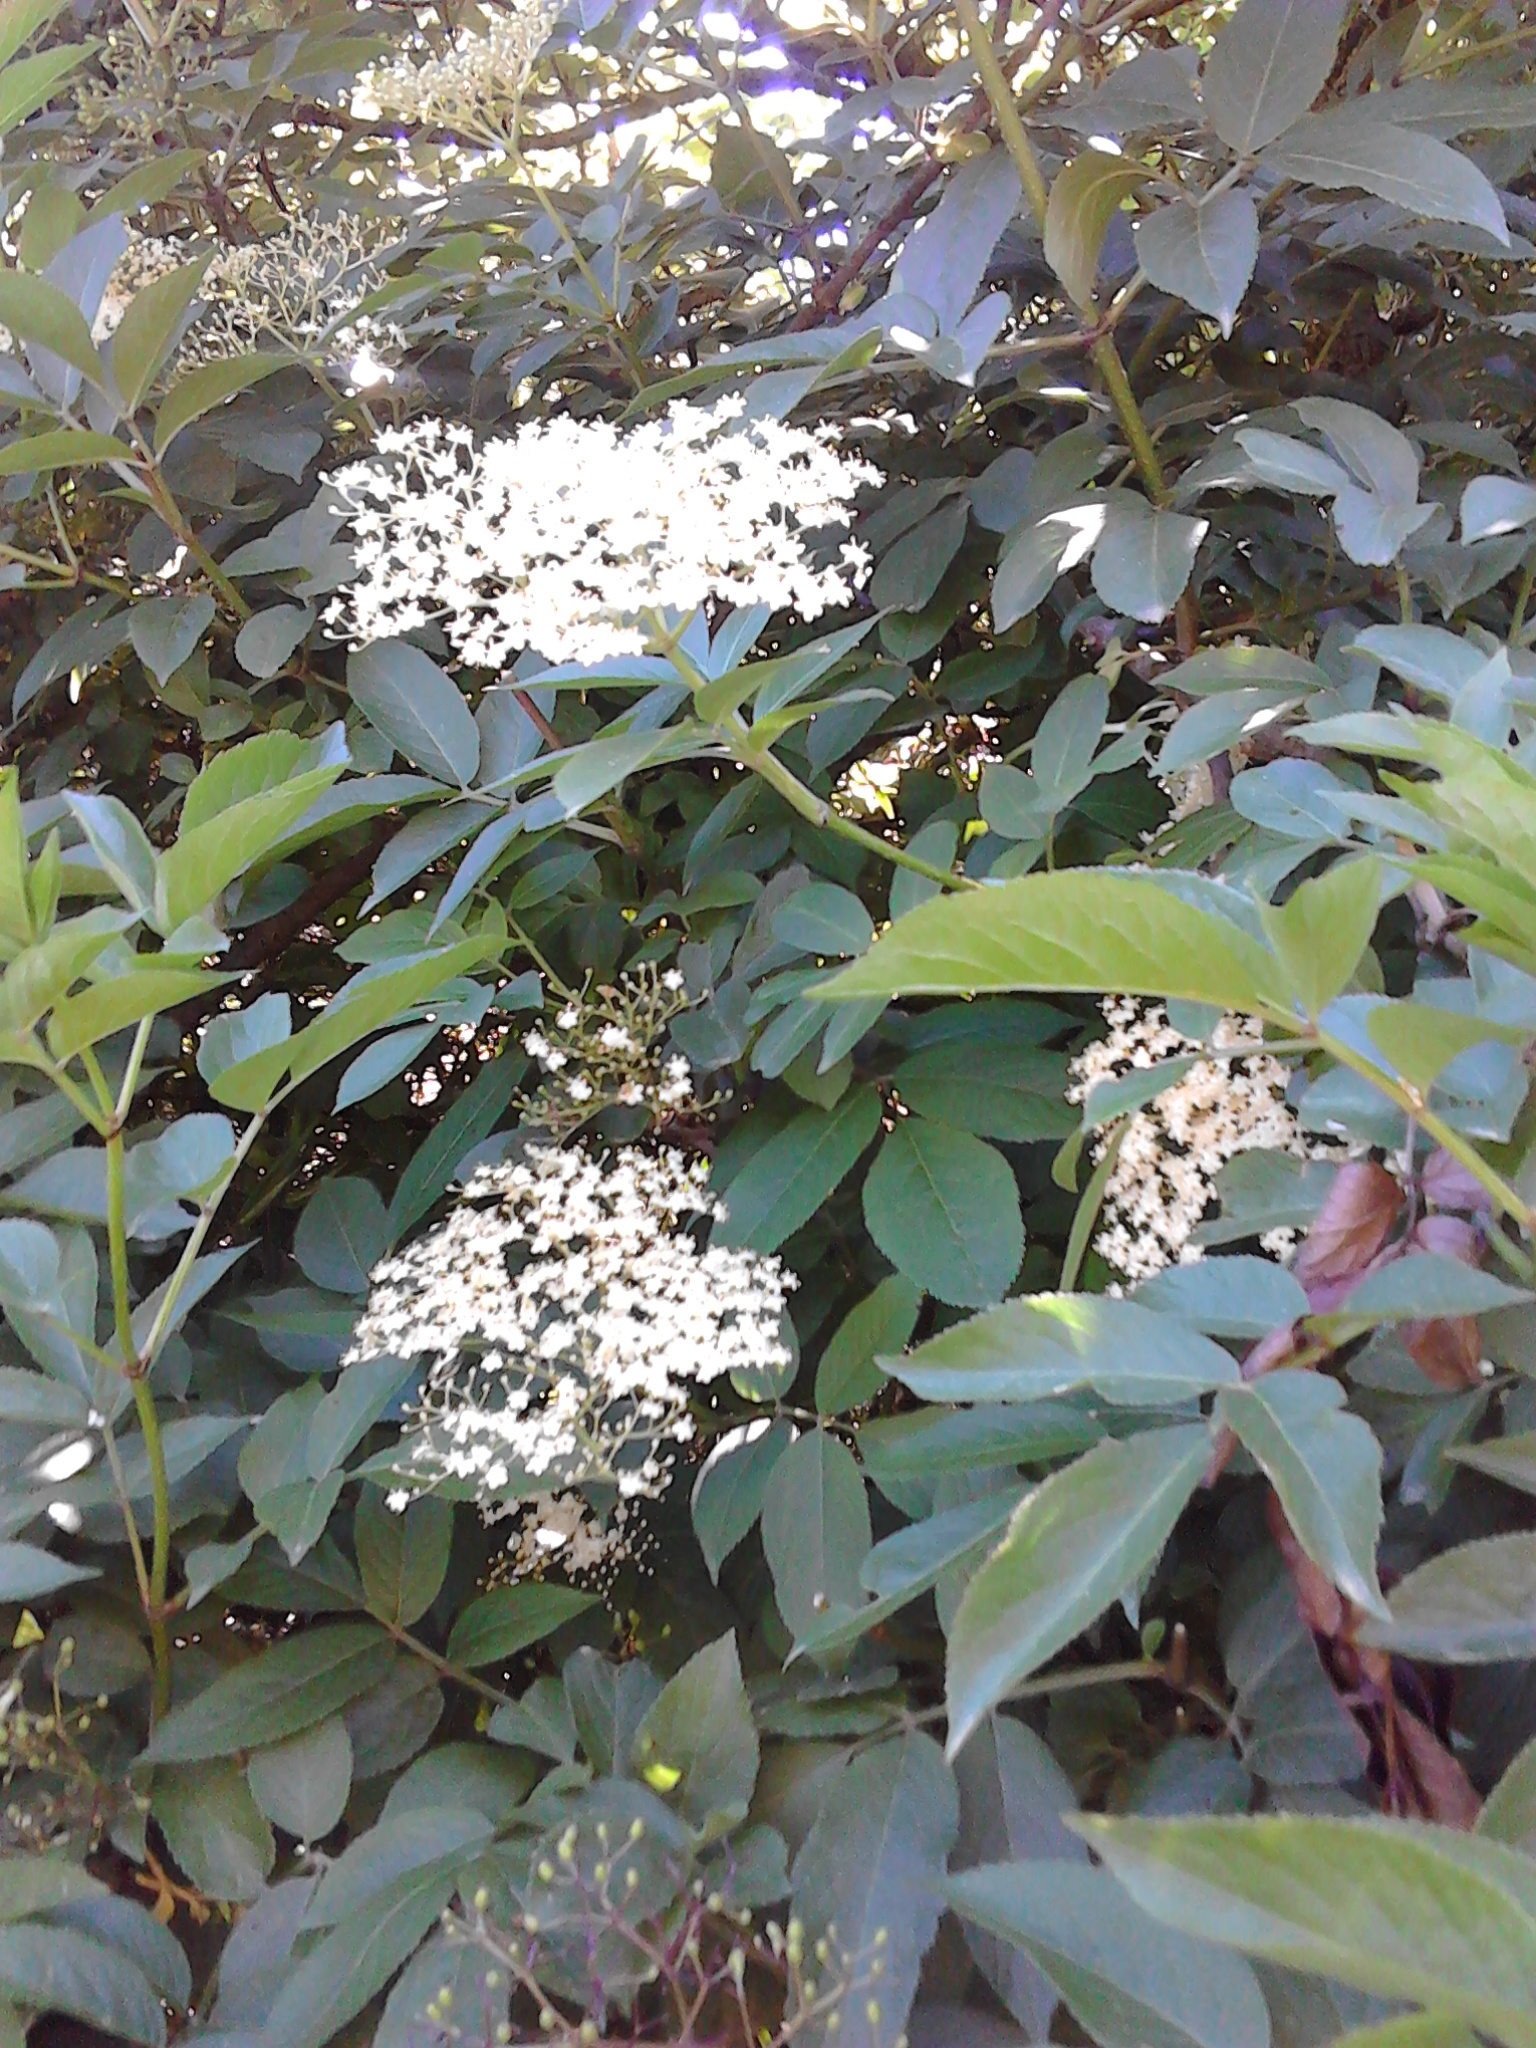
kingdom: Plantae
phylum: Tracheophyta
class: Magnoliopsida
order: Dipsacales
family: Viburnaceae
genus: Sambucus
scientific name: Sambucus nigra
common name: Elder
